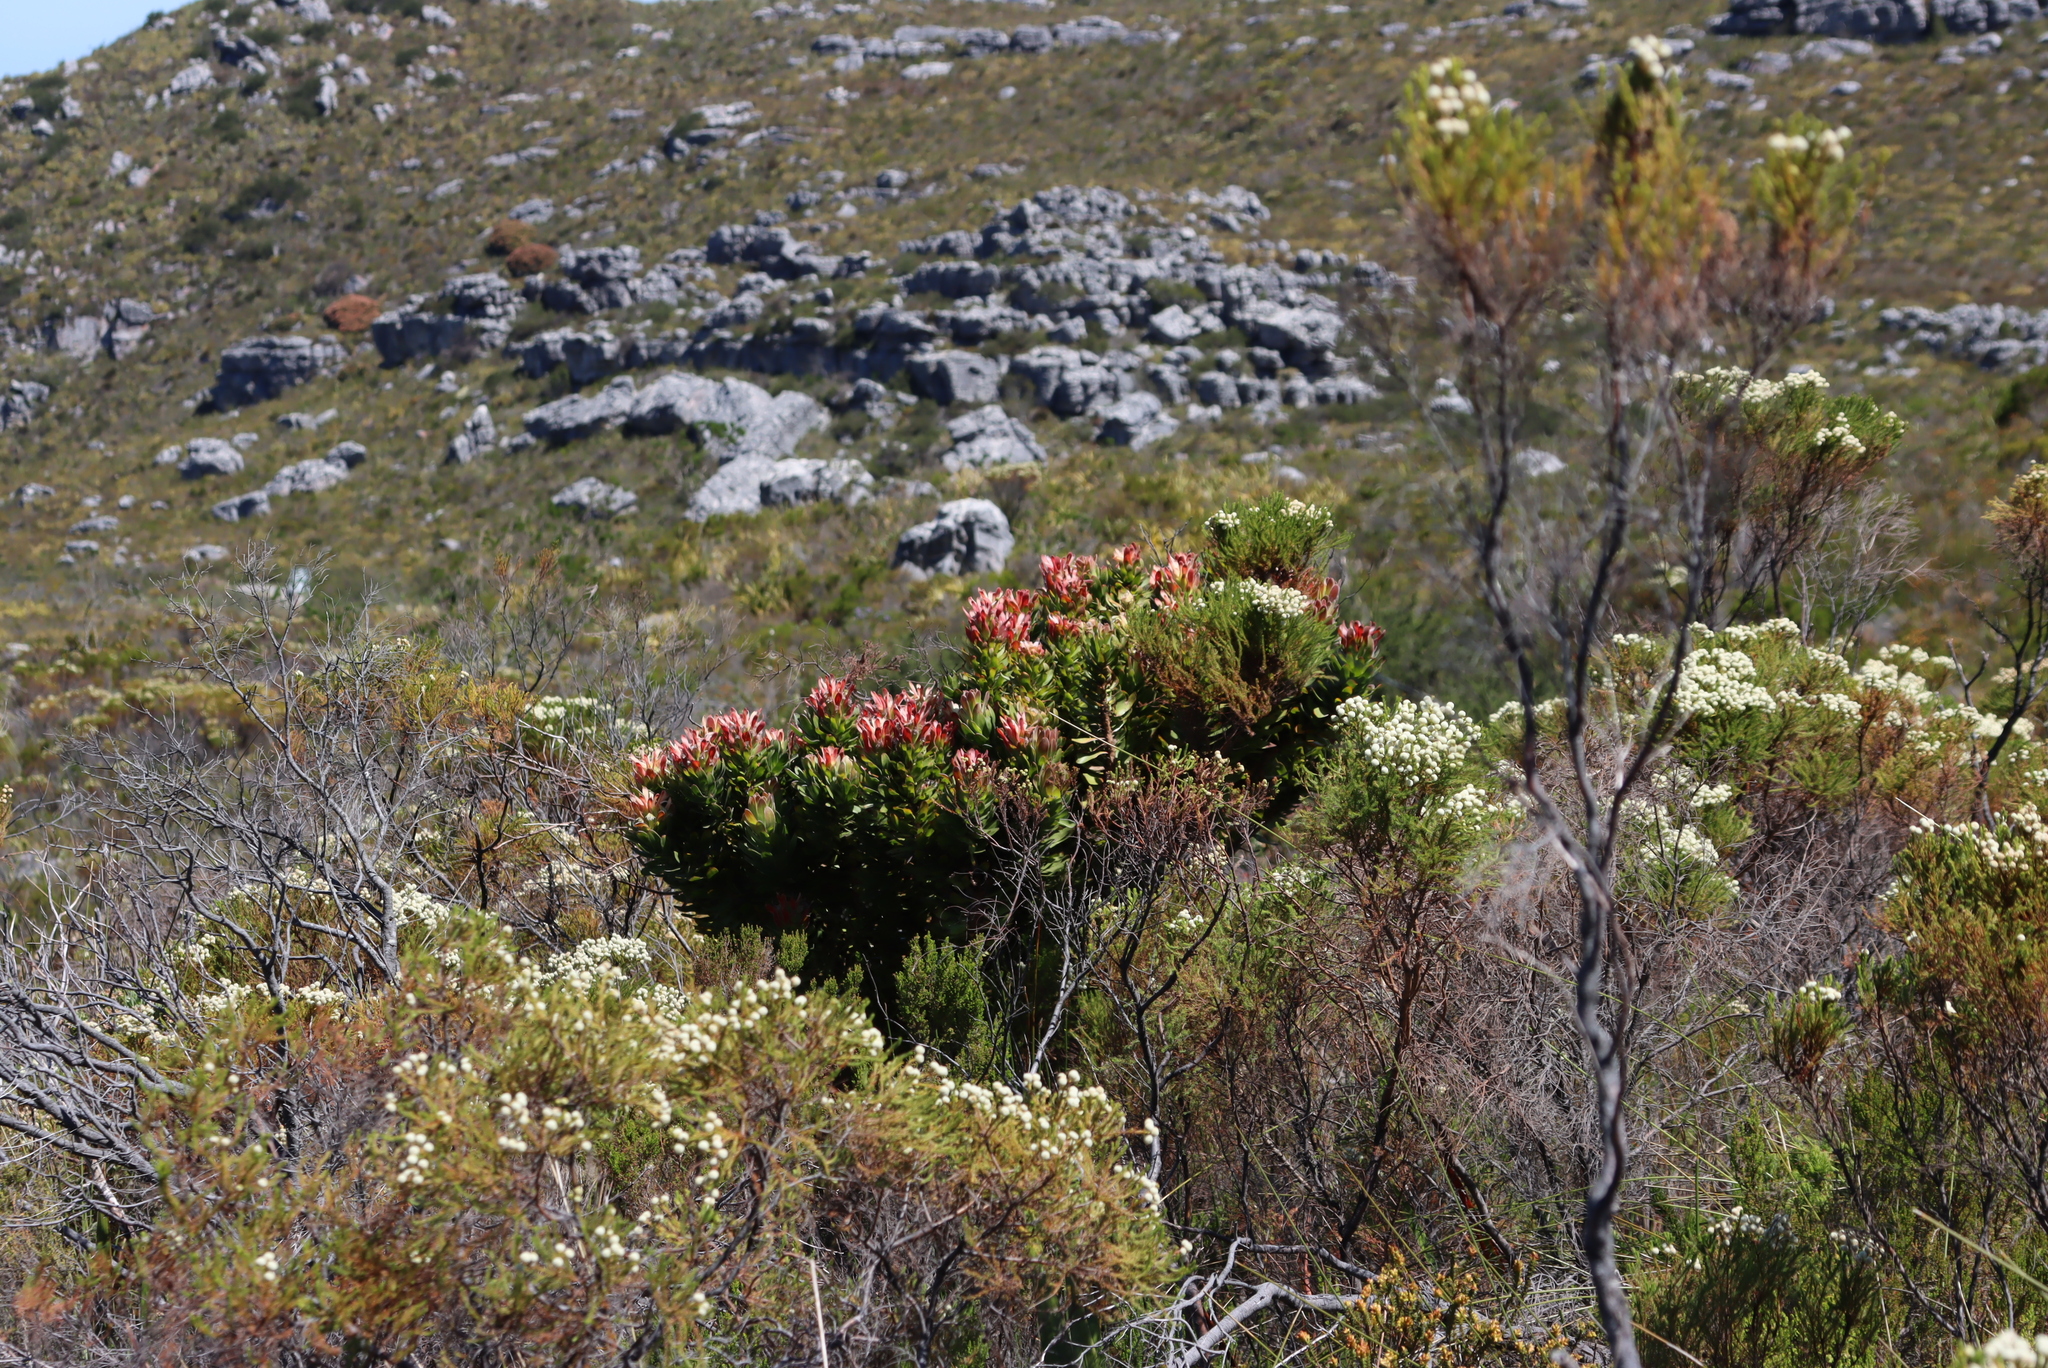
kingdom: Plantae
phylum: Tracheophyta
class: Magnoliopsida
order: Proteales
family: Proteaceae
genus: Mimetes
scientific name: Mimetes fimbriifolius
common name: Fringed bottlebrush
